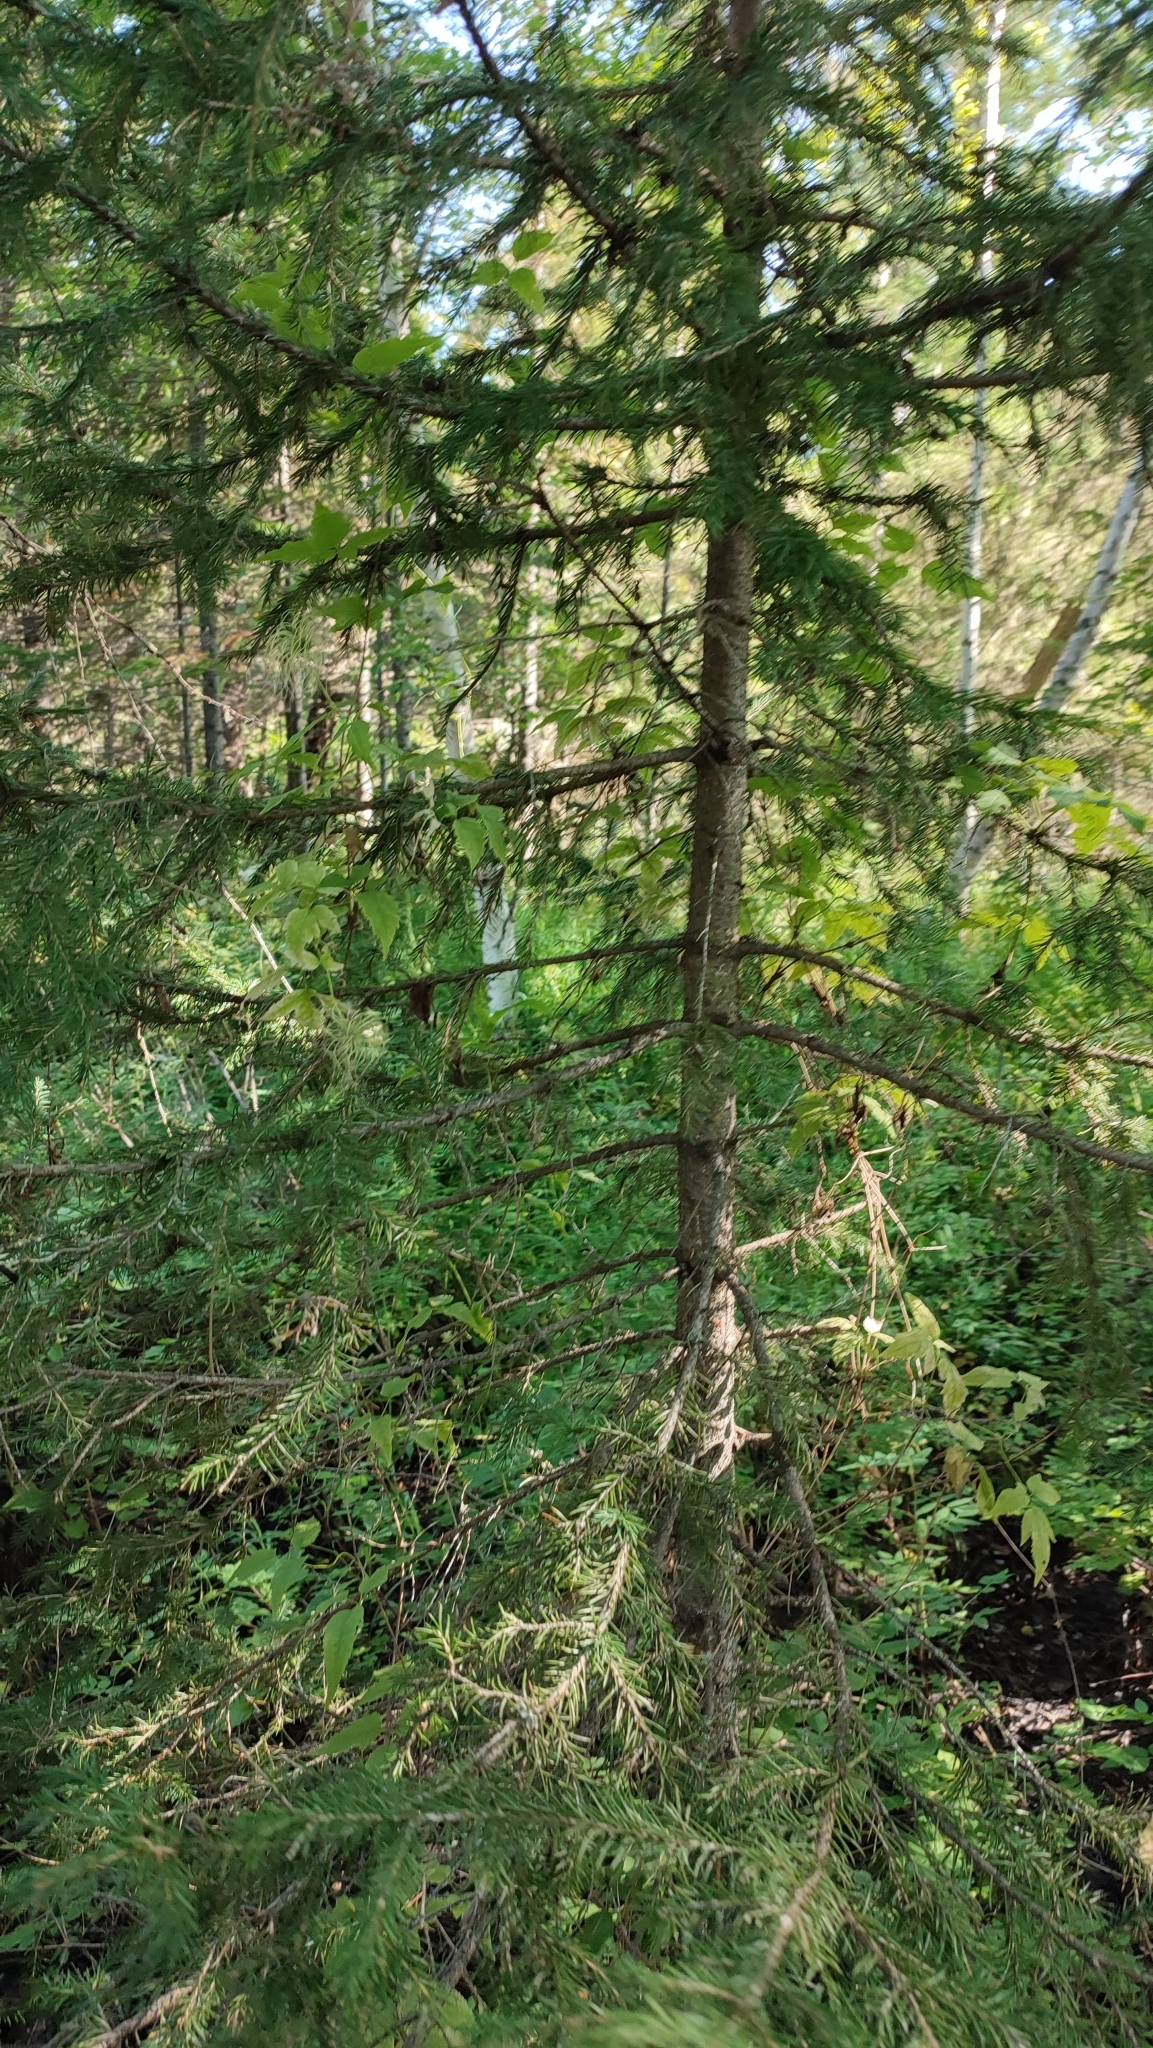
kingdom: Plantae
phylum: Tracheophyta
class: Pinopsida
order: Pinales
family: Pinaceae
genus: Picea
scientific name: Picea obovata
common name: Siberian spruce
